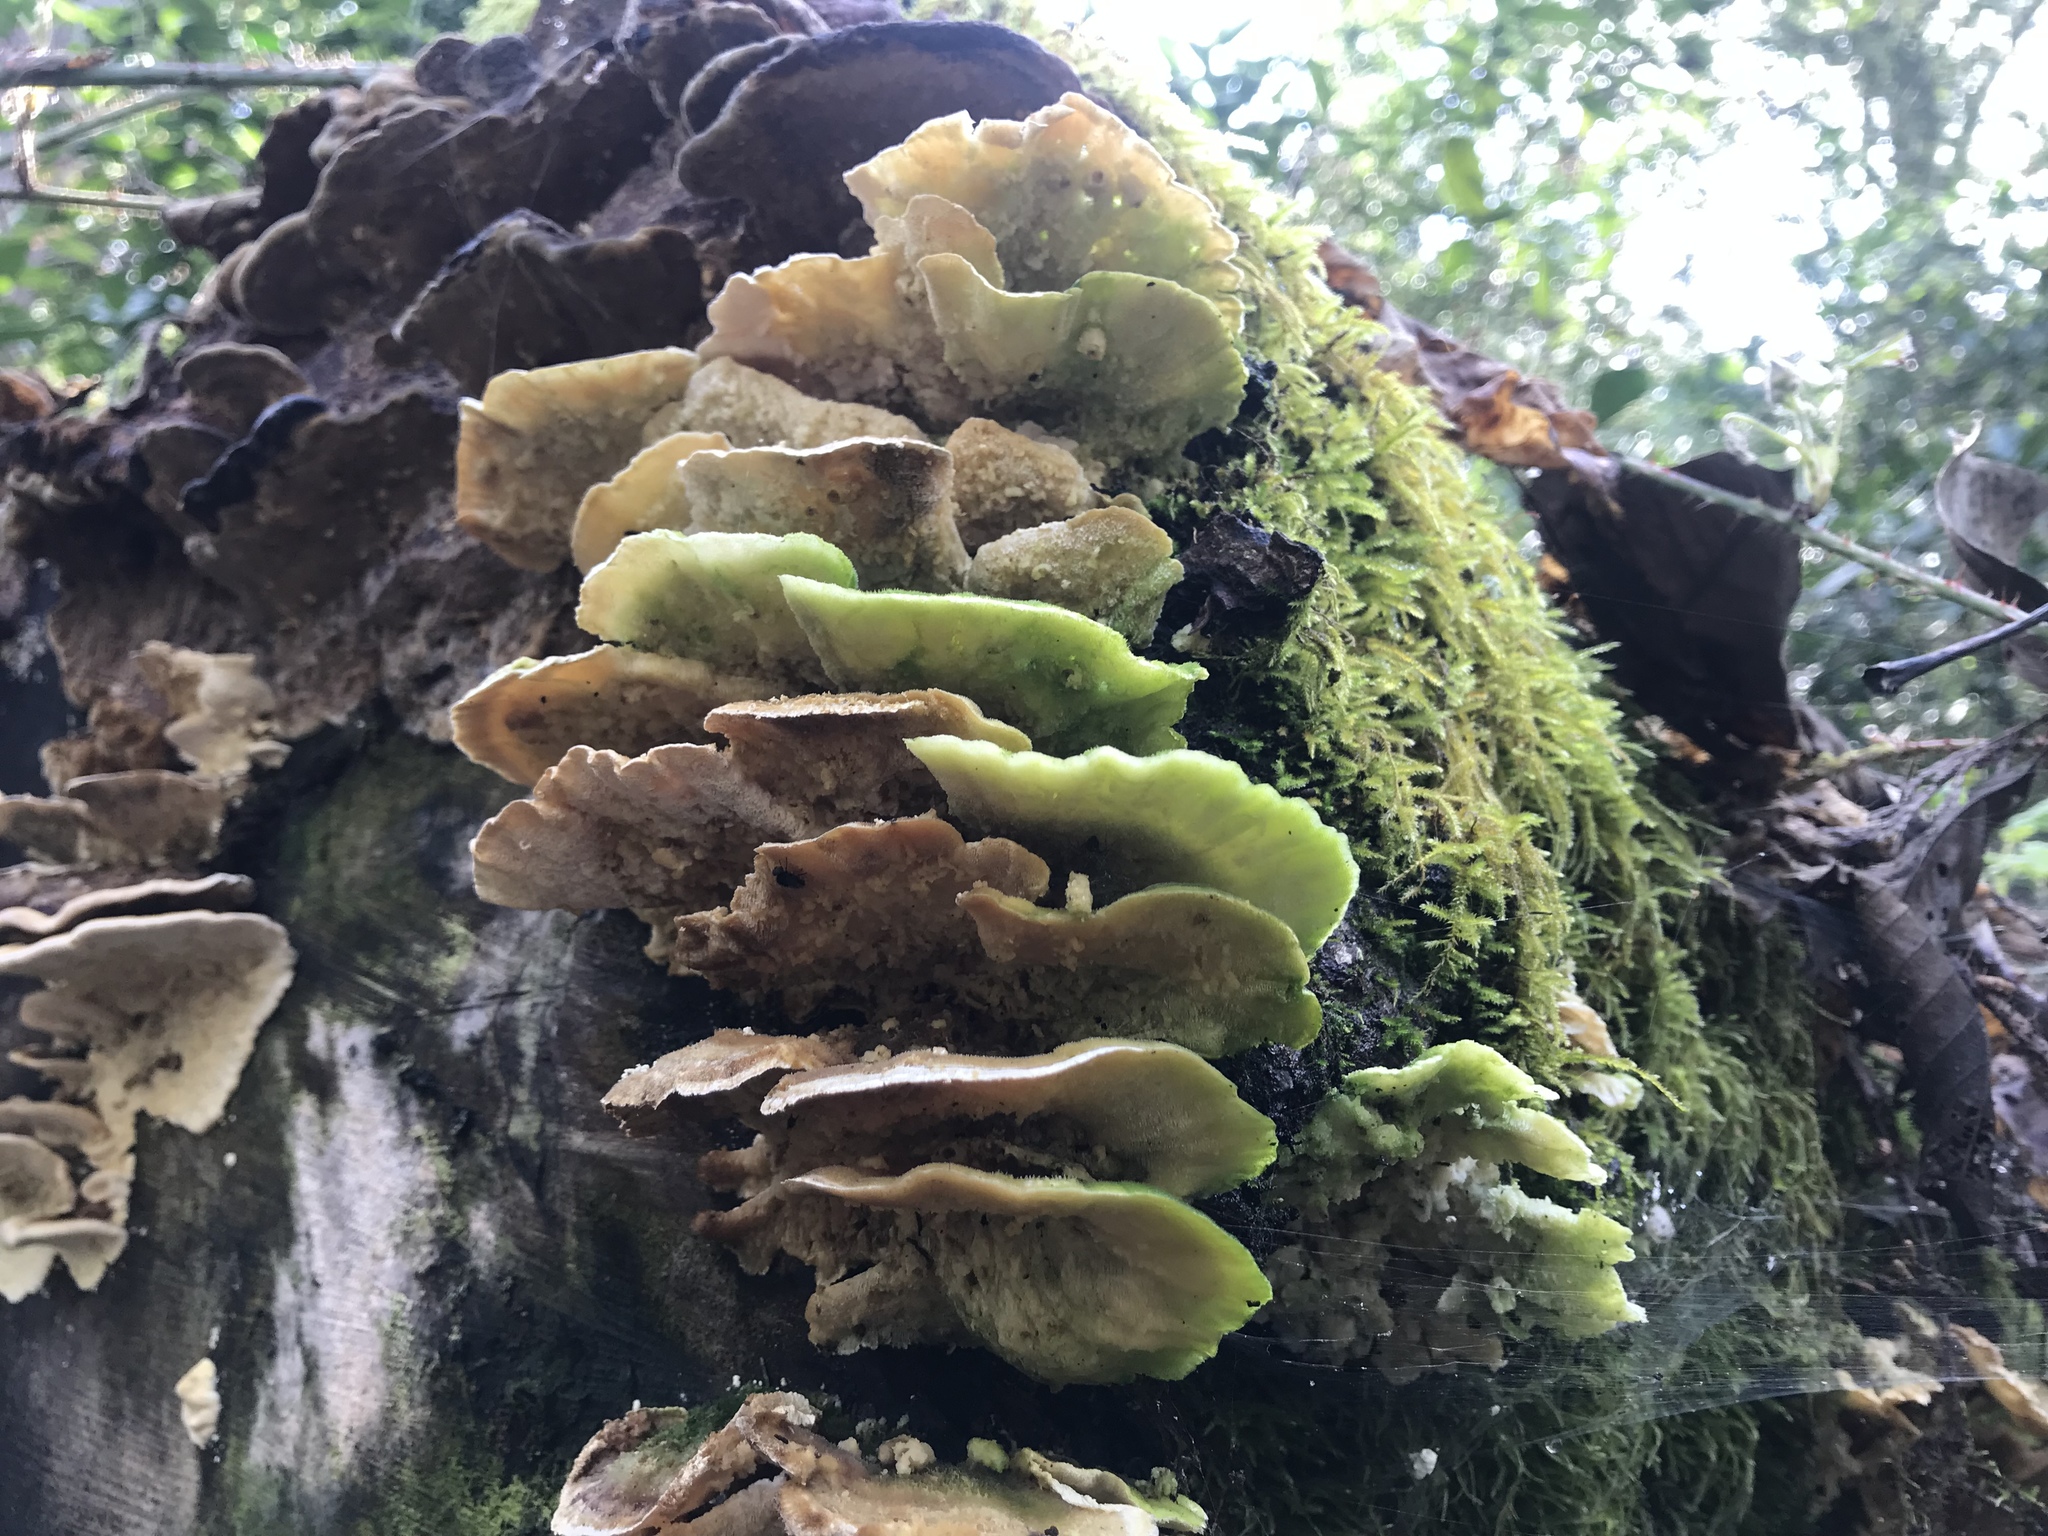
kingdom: Fungi
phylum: Basidiomycota
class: Agaricomycetes
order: Polyporales
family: Polyporaceae
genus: Trametes
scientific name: Trametes versicolor
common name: Turkeytail
